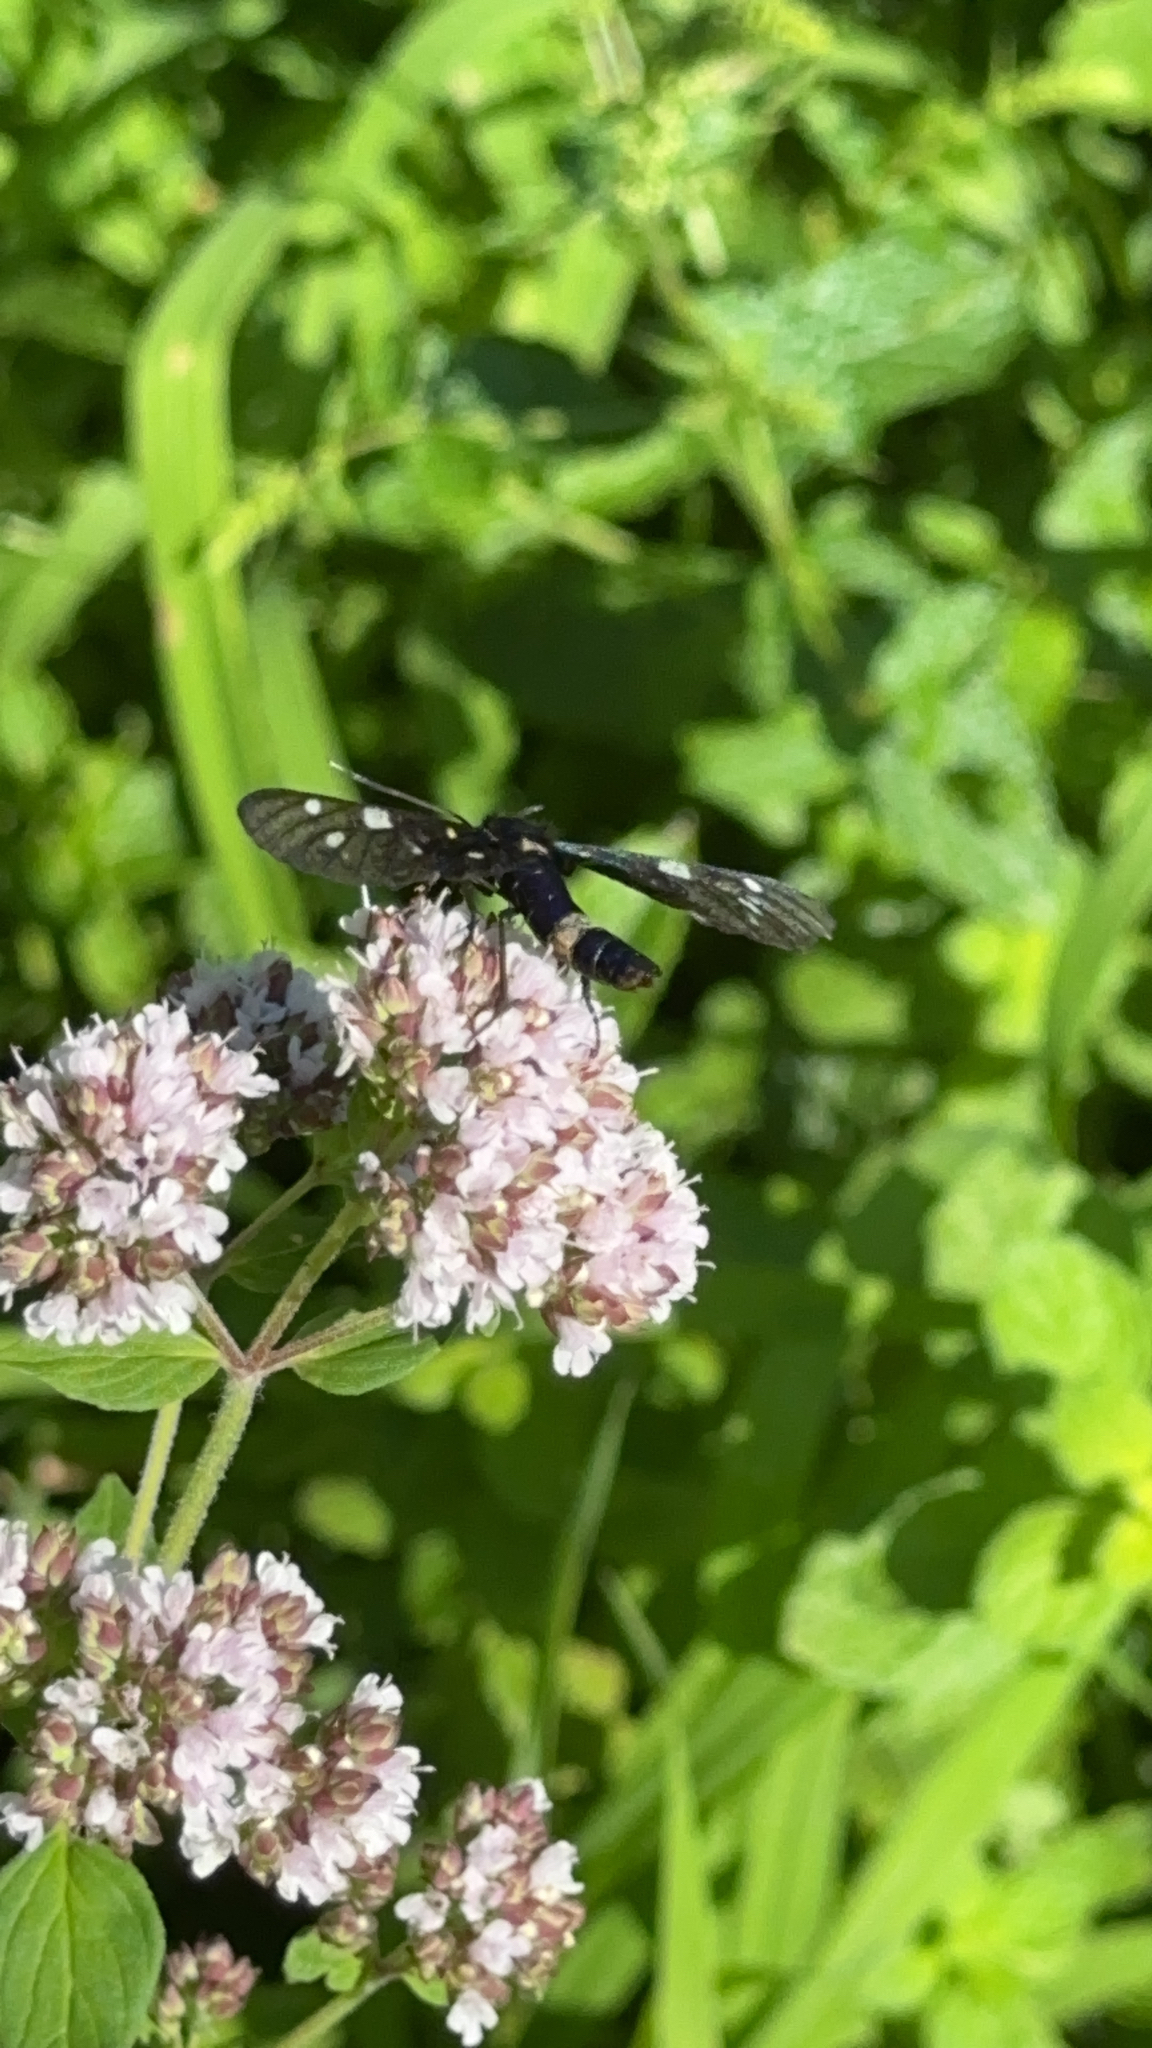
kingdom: Animalia
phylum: Arthropoda
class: Insecta
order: Lepidoptera
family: Erebidae
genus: Amata
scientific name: Amata phegea
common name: Nine-spotted
